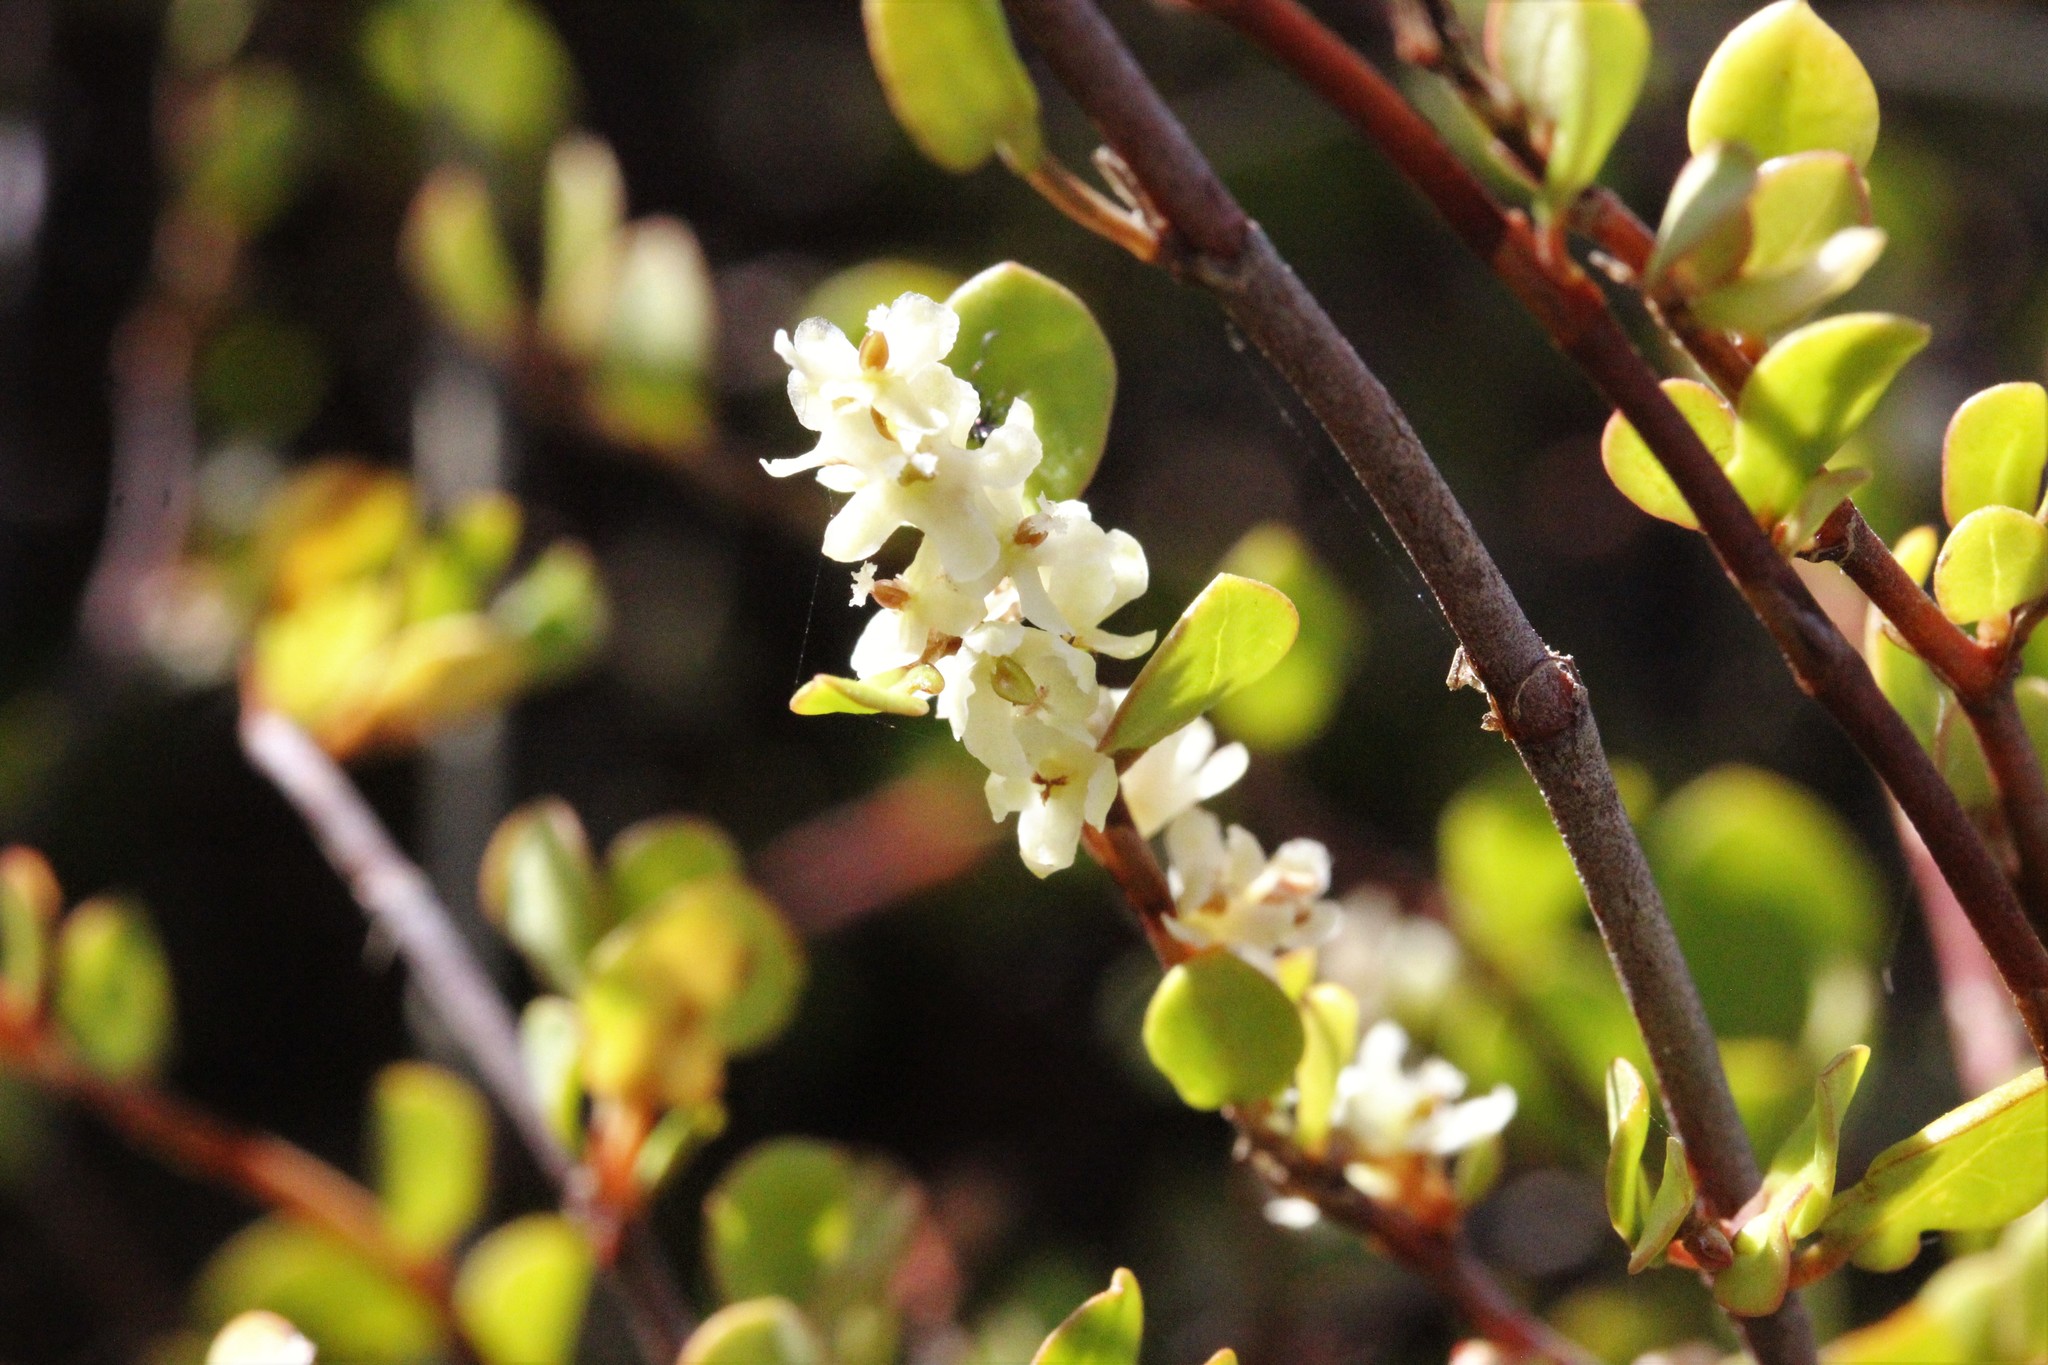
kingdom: Plantae
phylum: Tracheophyta
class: Magnoliopsida
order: Caryophyllales
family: Polygonaceae
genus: Muehlenbeckia
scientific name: Muehlenbeckia complexa
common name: Wireplant
